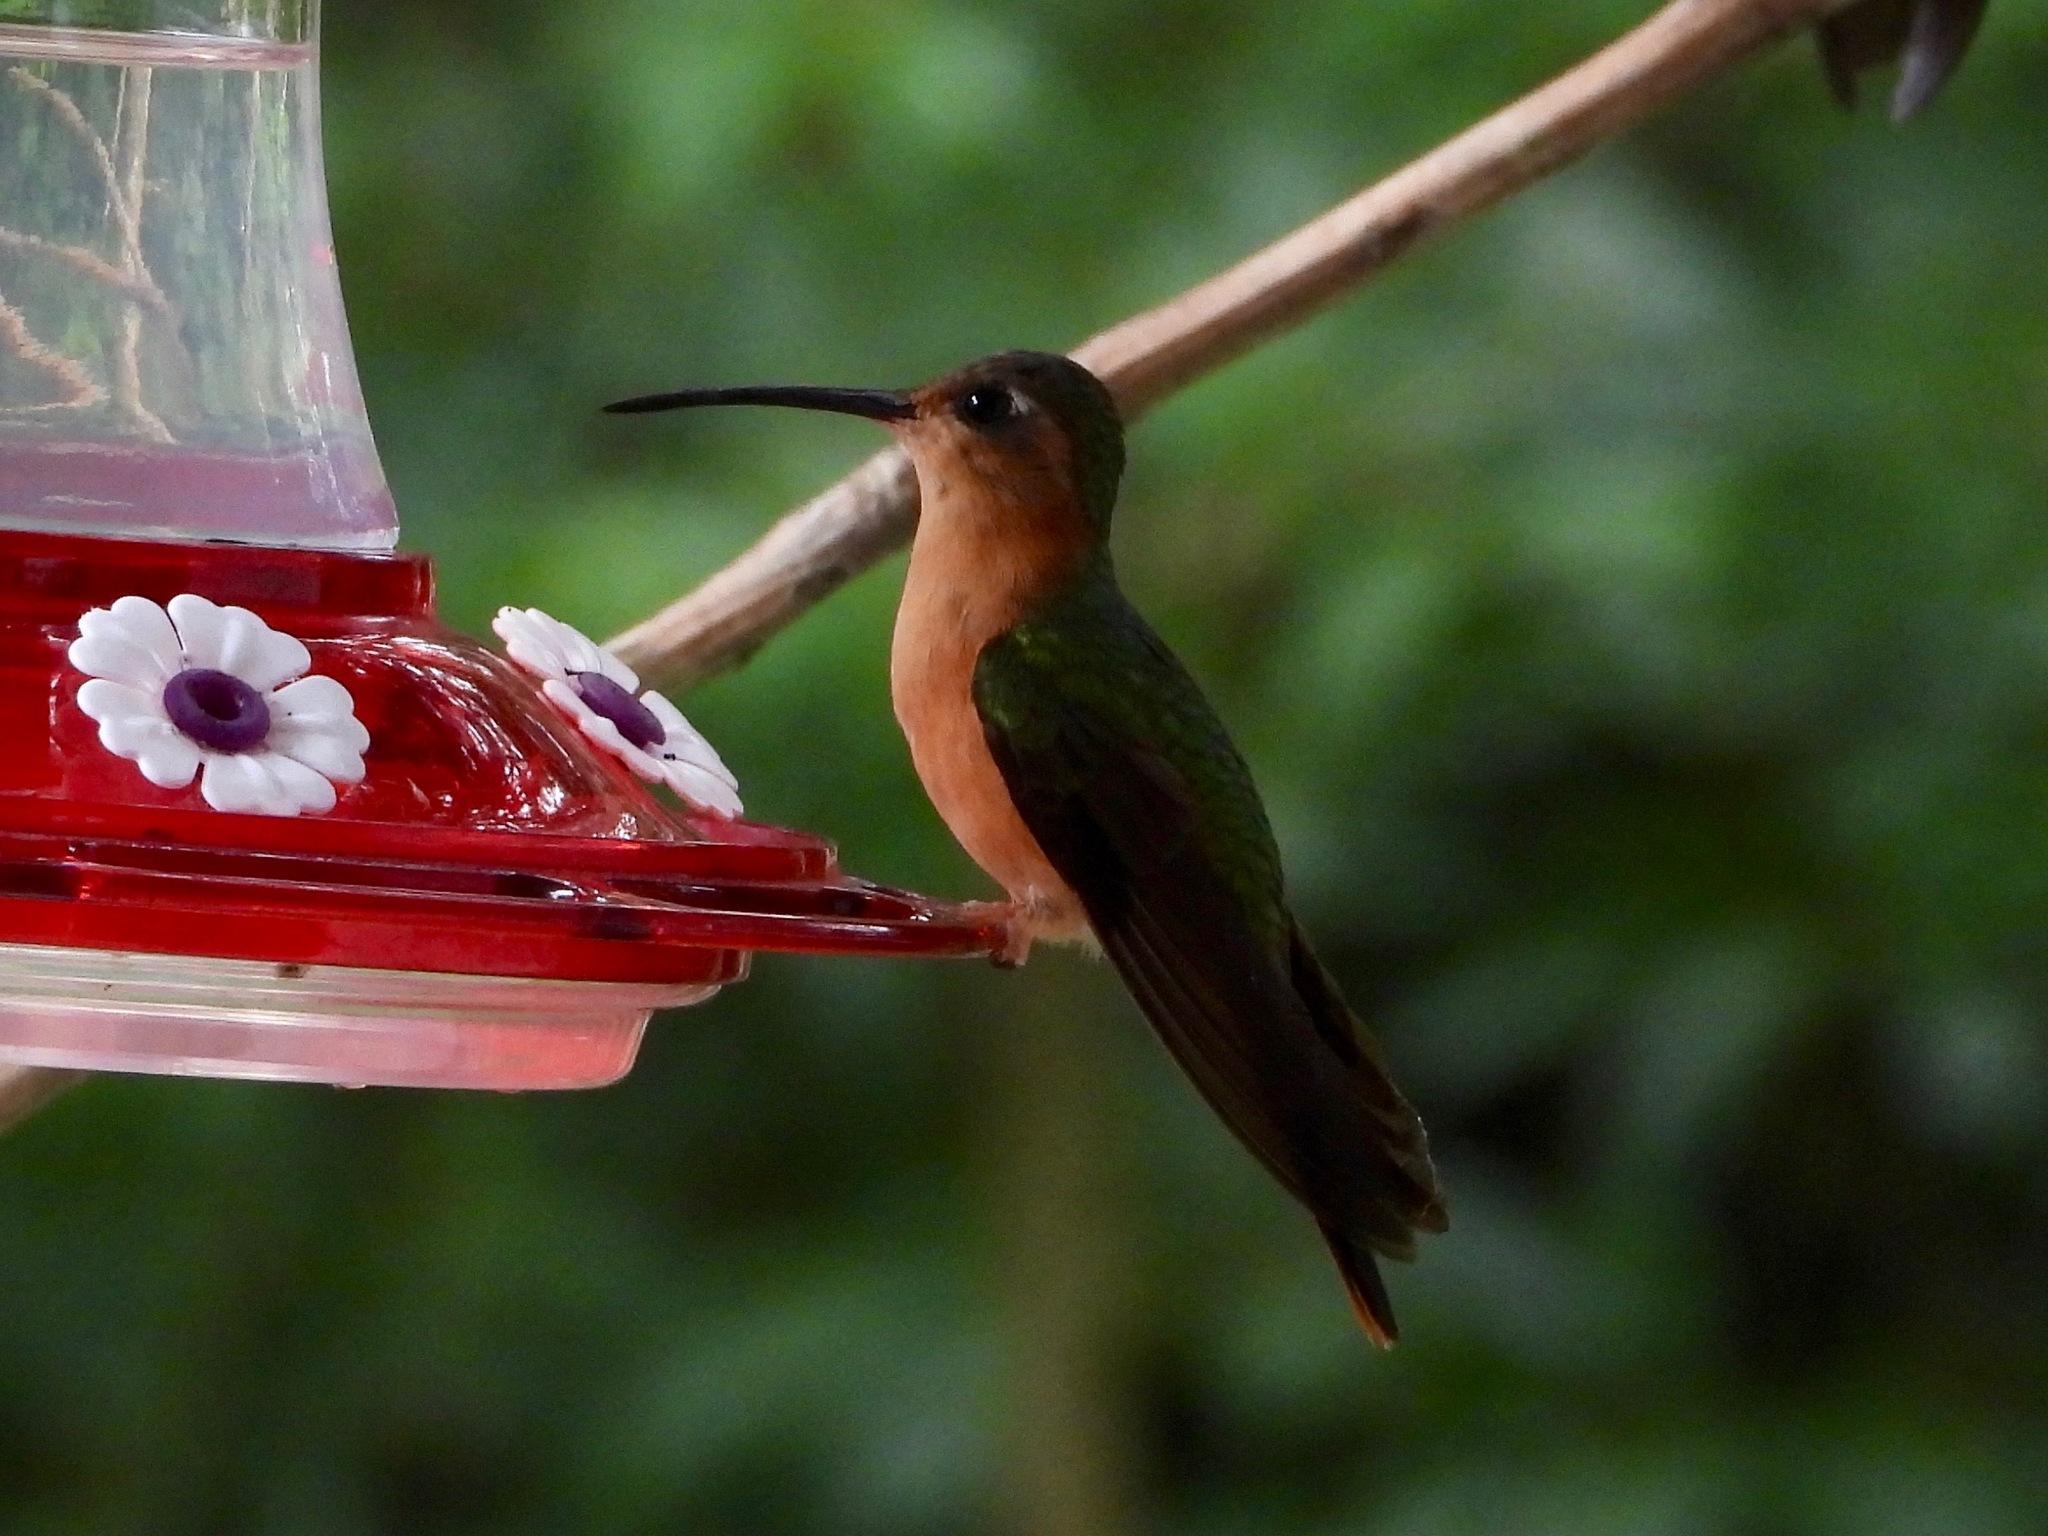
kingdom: Animalia
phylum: Chordata
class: Aves
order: Apodiformes
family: Trochilidae
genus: Pampa
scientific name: Pampa rufa
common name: Rufous sabrewing
